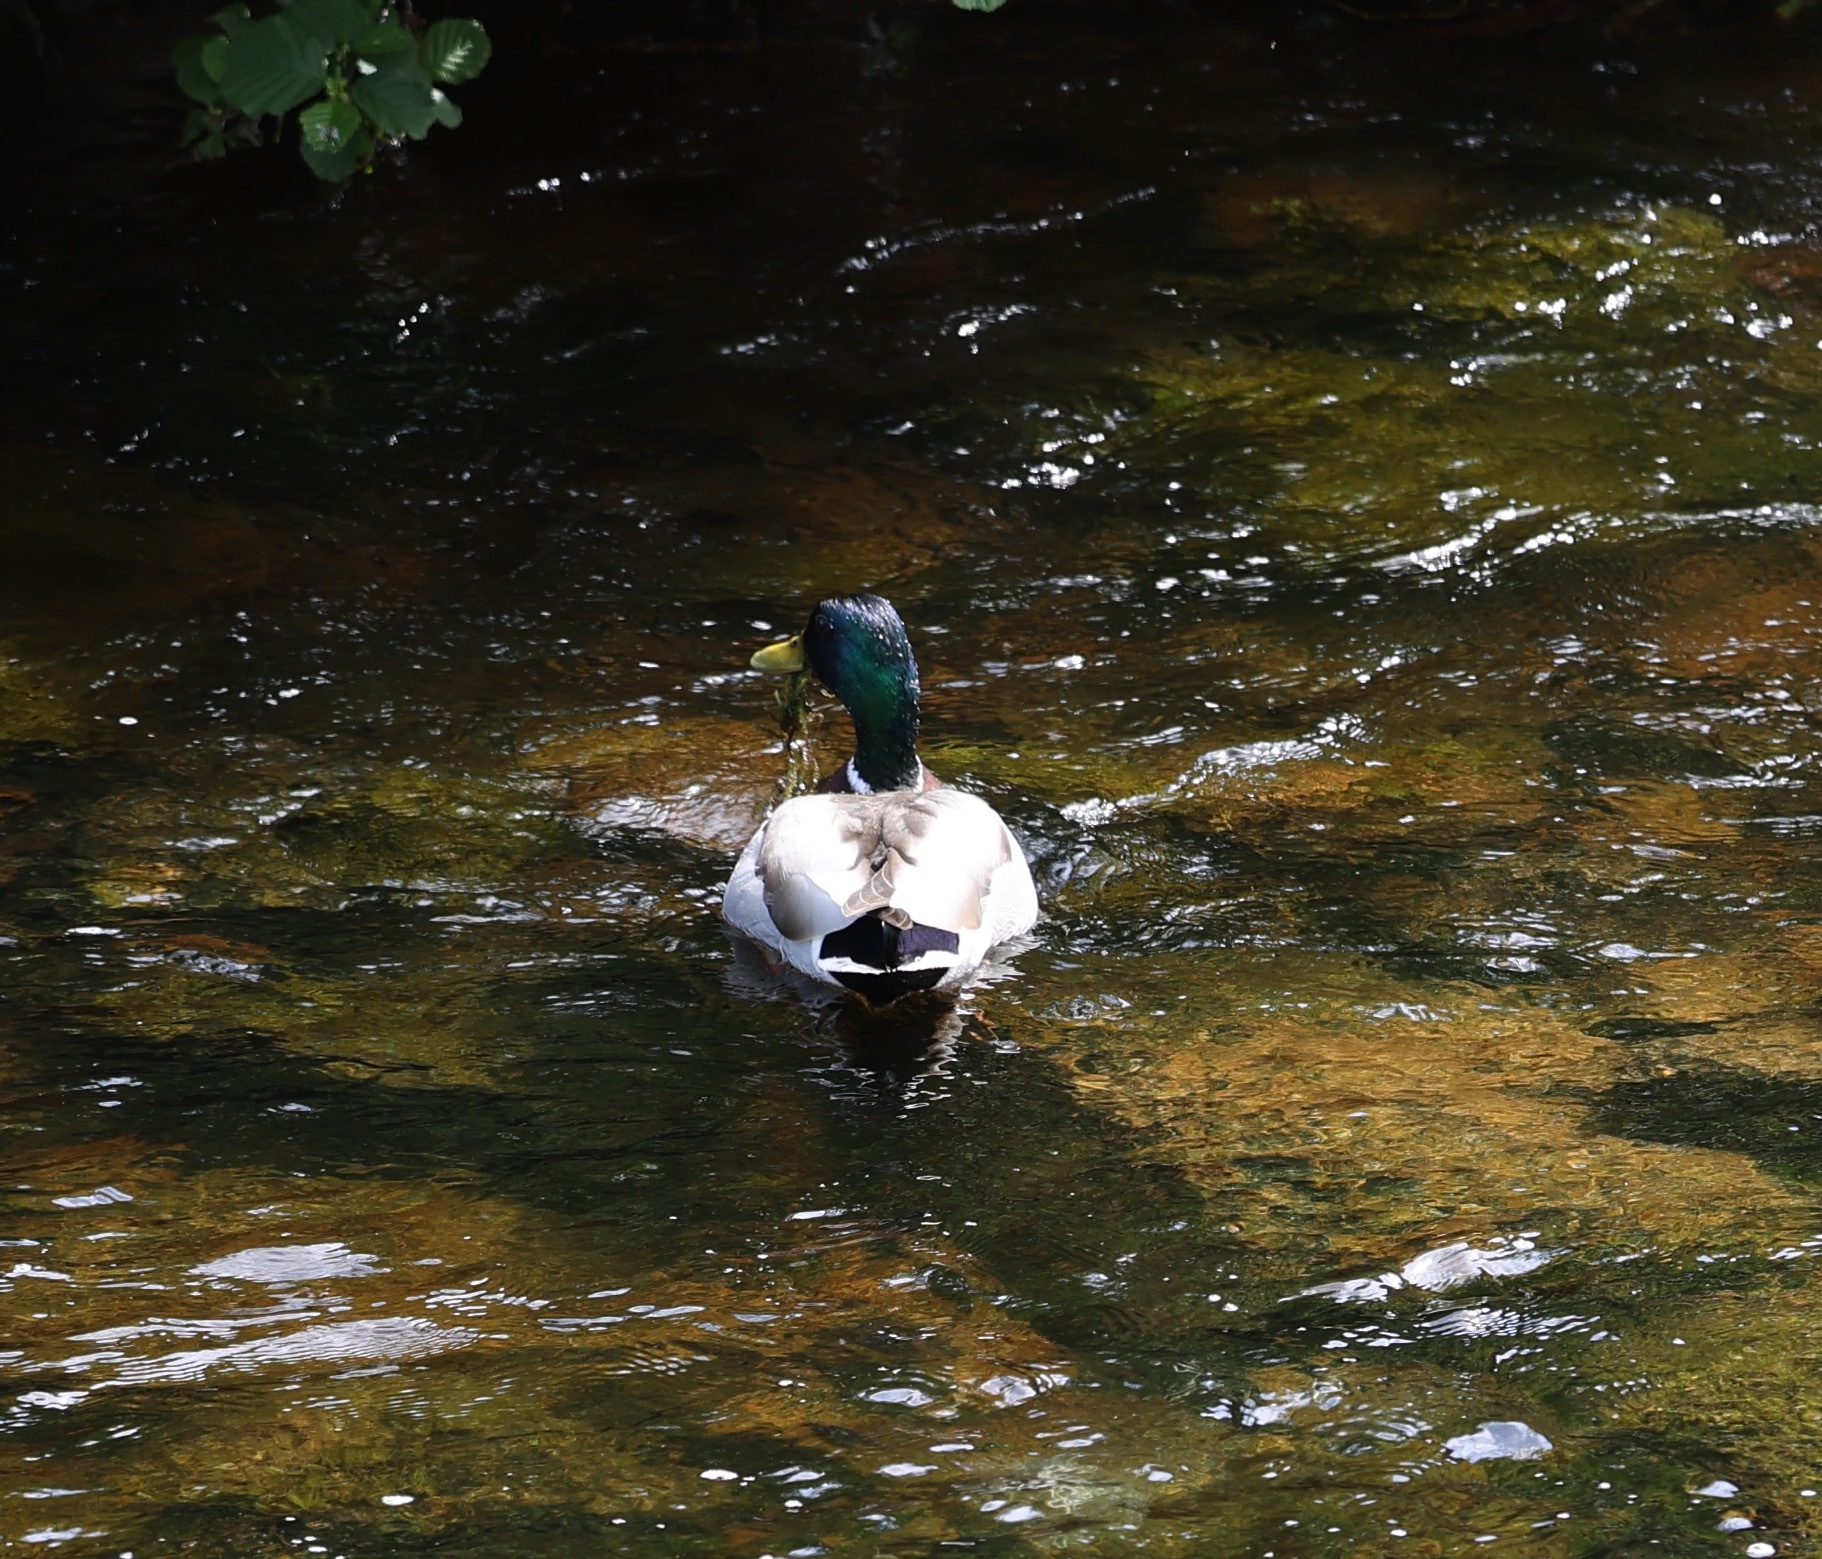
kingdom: Animalia
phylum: Chordata
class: Aves
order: Anseriformes
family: Anatidae
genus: Anas
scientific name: Anas platyrhynchos
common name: Mallard
